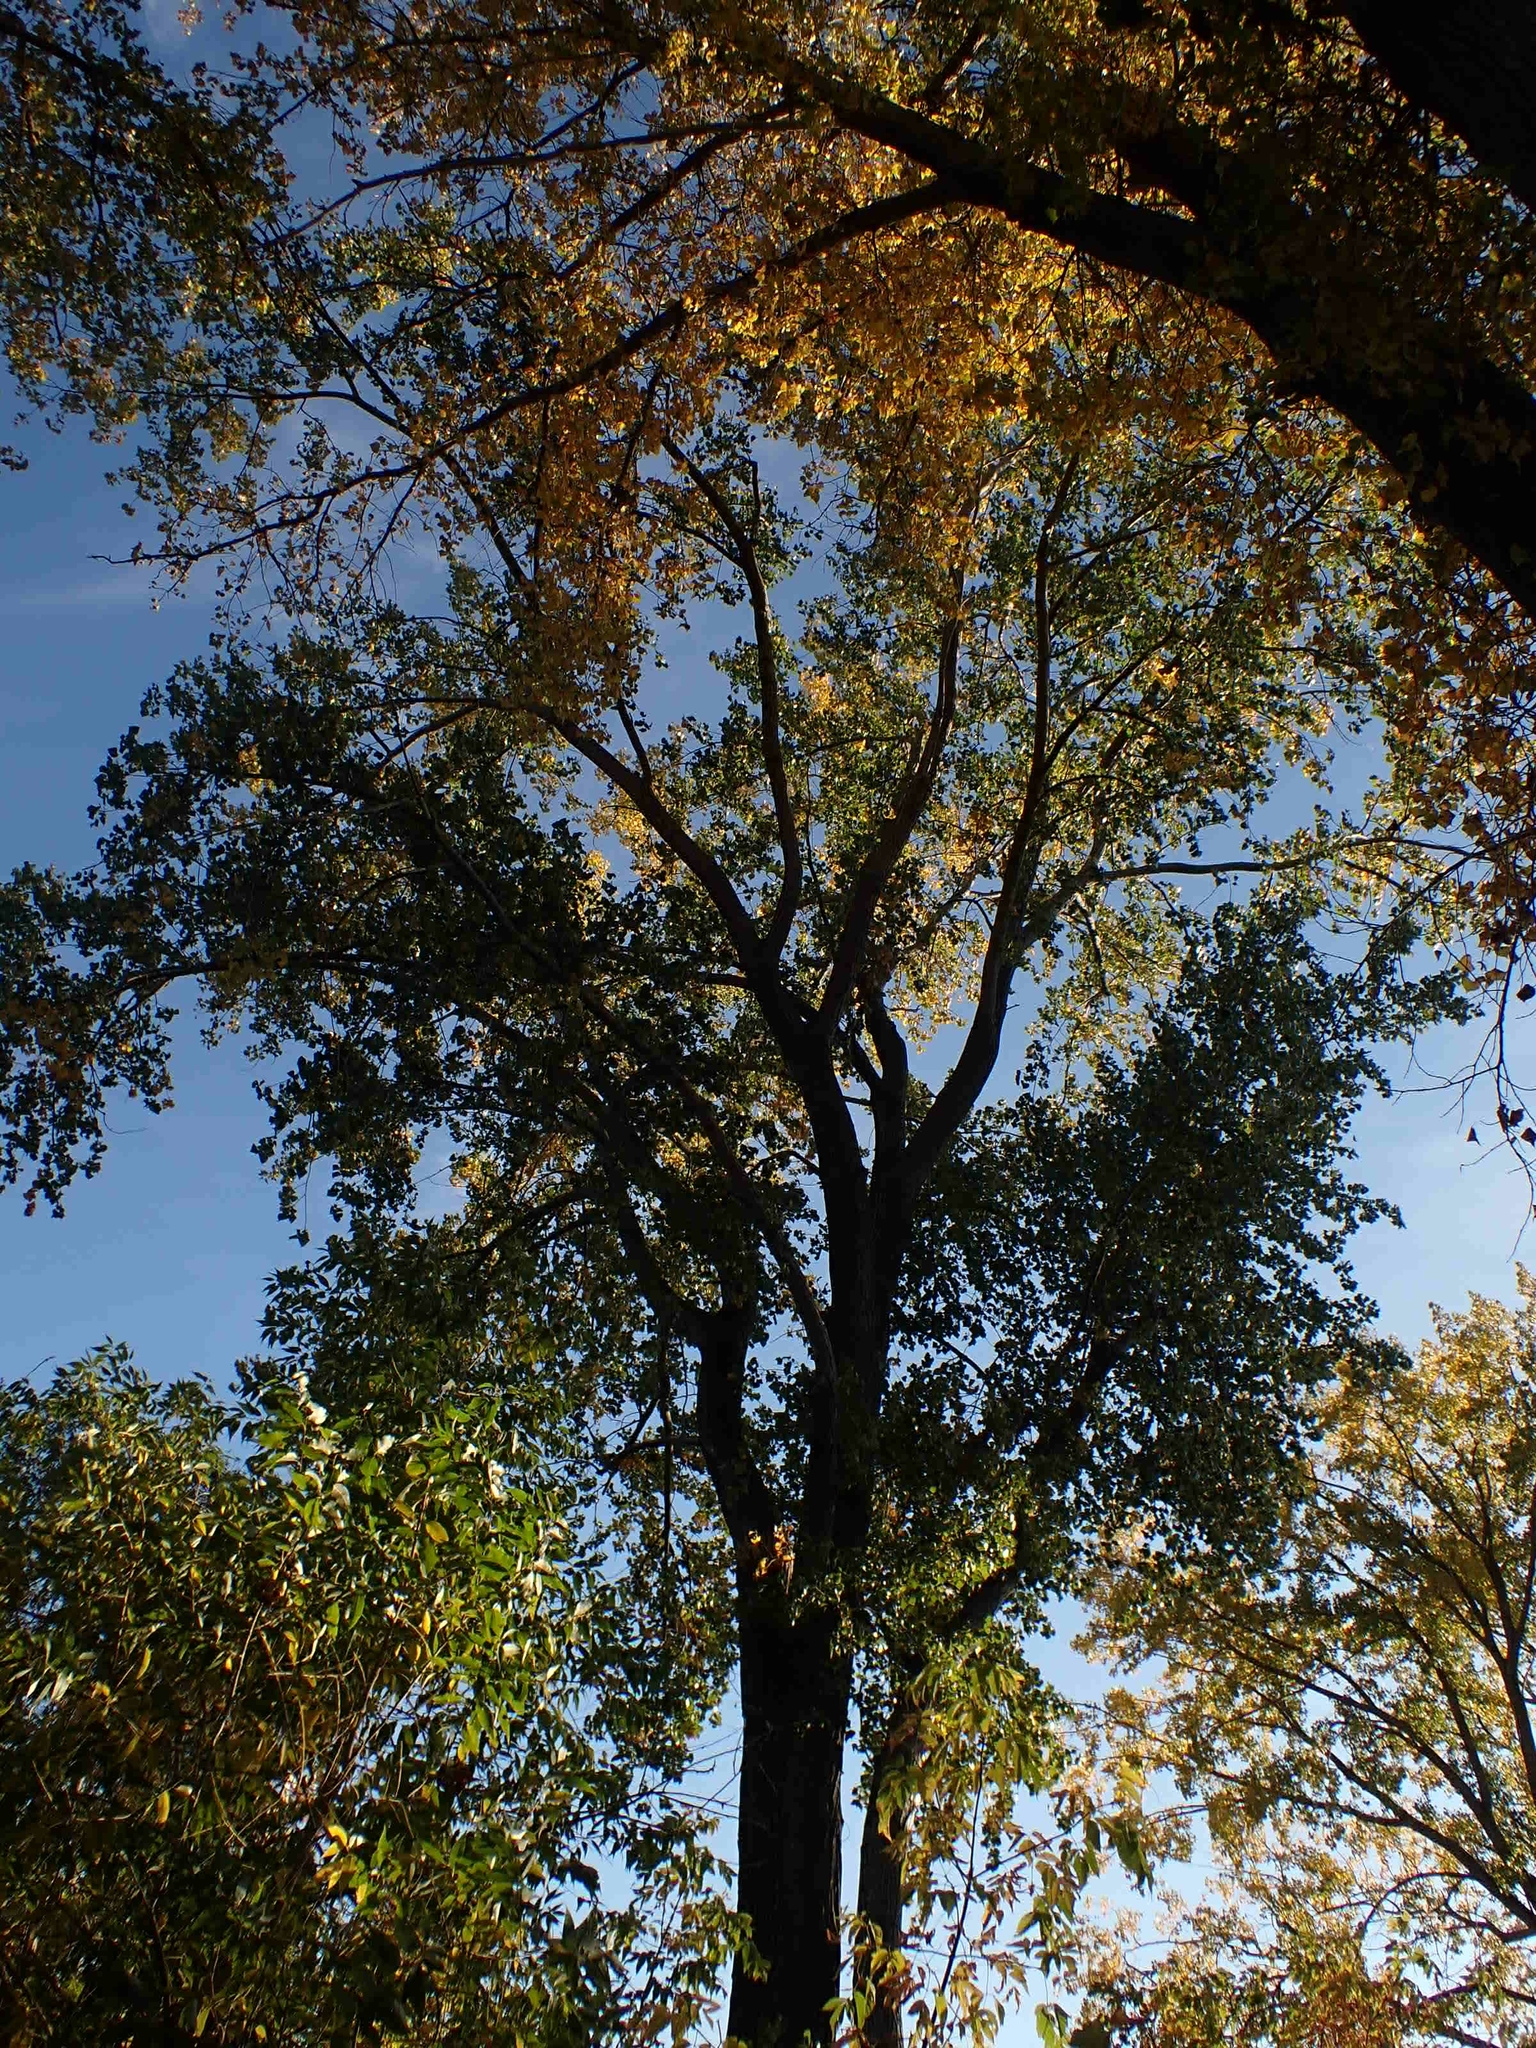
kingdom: Plantae
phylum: Tracheophyta
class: Magnoliopsida
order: Malpighiales
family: Salicaceae
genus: Populus
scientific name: Populus deltoides
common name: Eastern cottonwood
